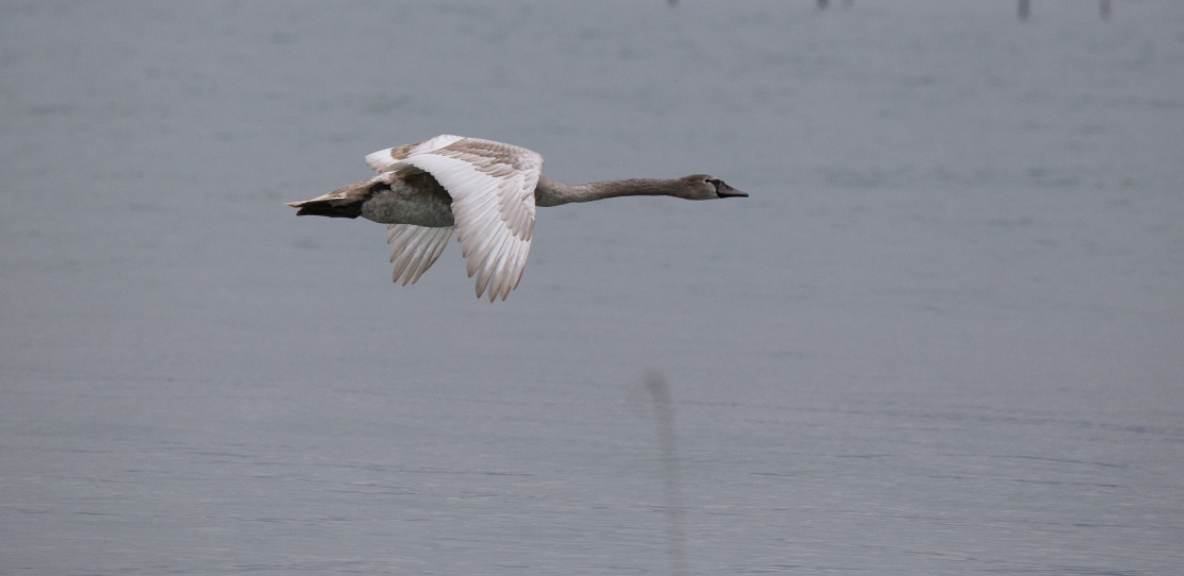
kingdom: Animalia
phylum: Chordata
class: Aves
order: Anseriformes
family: Anatidae
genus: Cygnus
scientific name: Cygnus olor
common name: Mute swan
